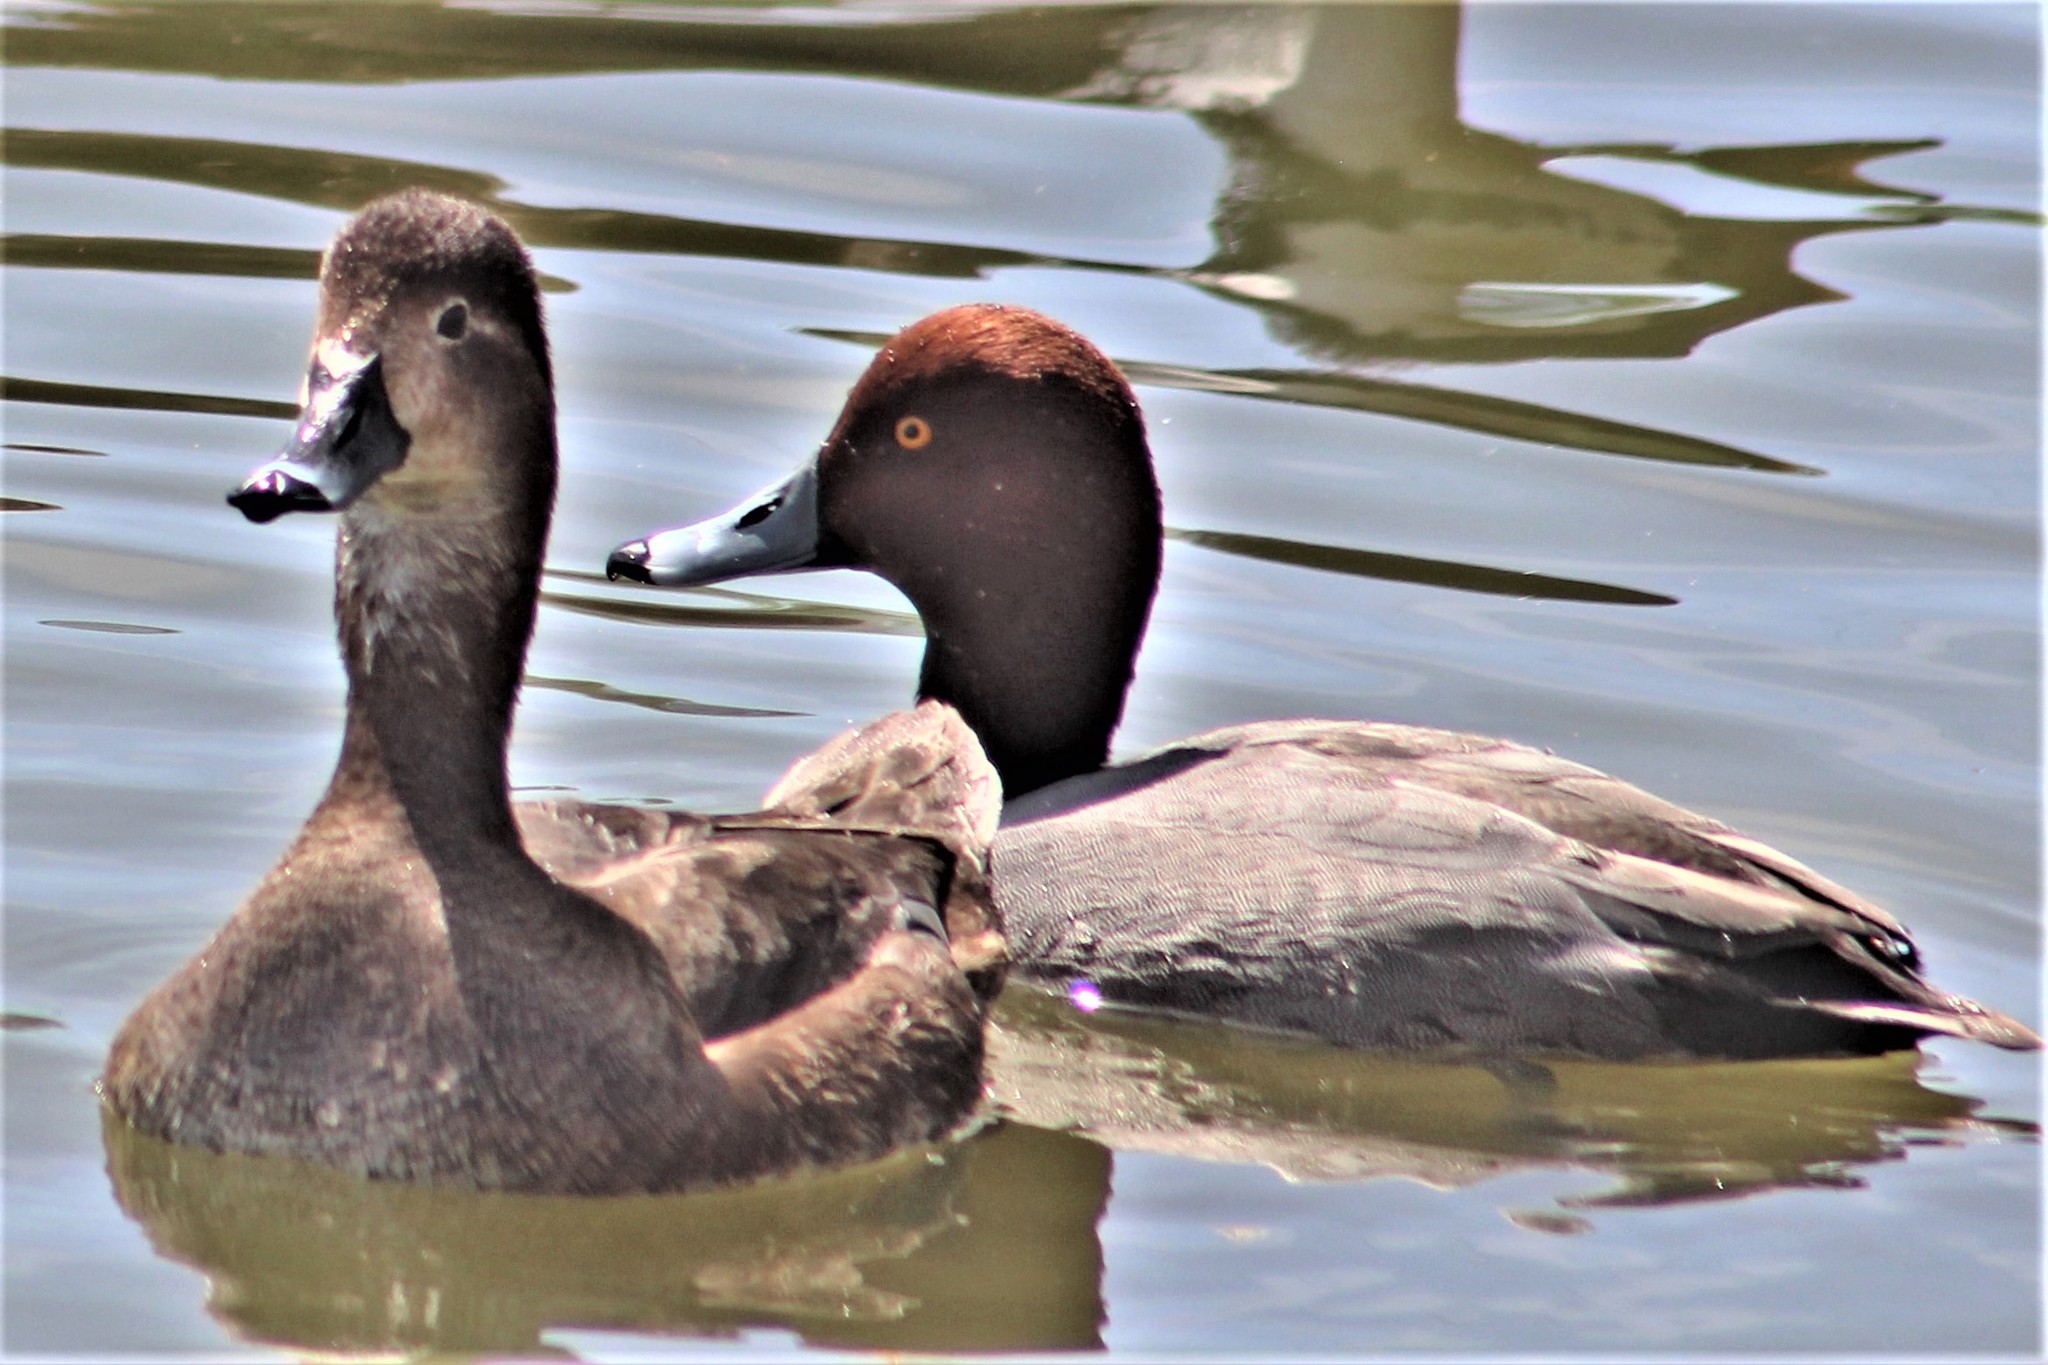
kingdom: Animalia
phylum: Chordata
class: Aves
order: Anseriformes
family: Anatidae
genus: Aythya
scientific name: Aythya americana
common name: Redhead
